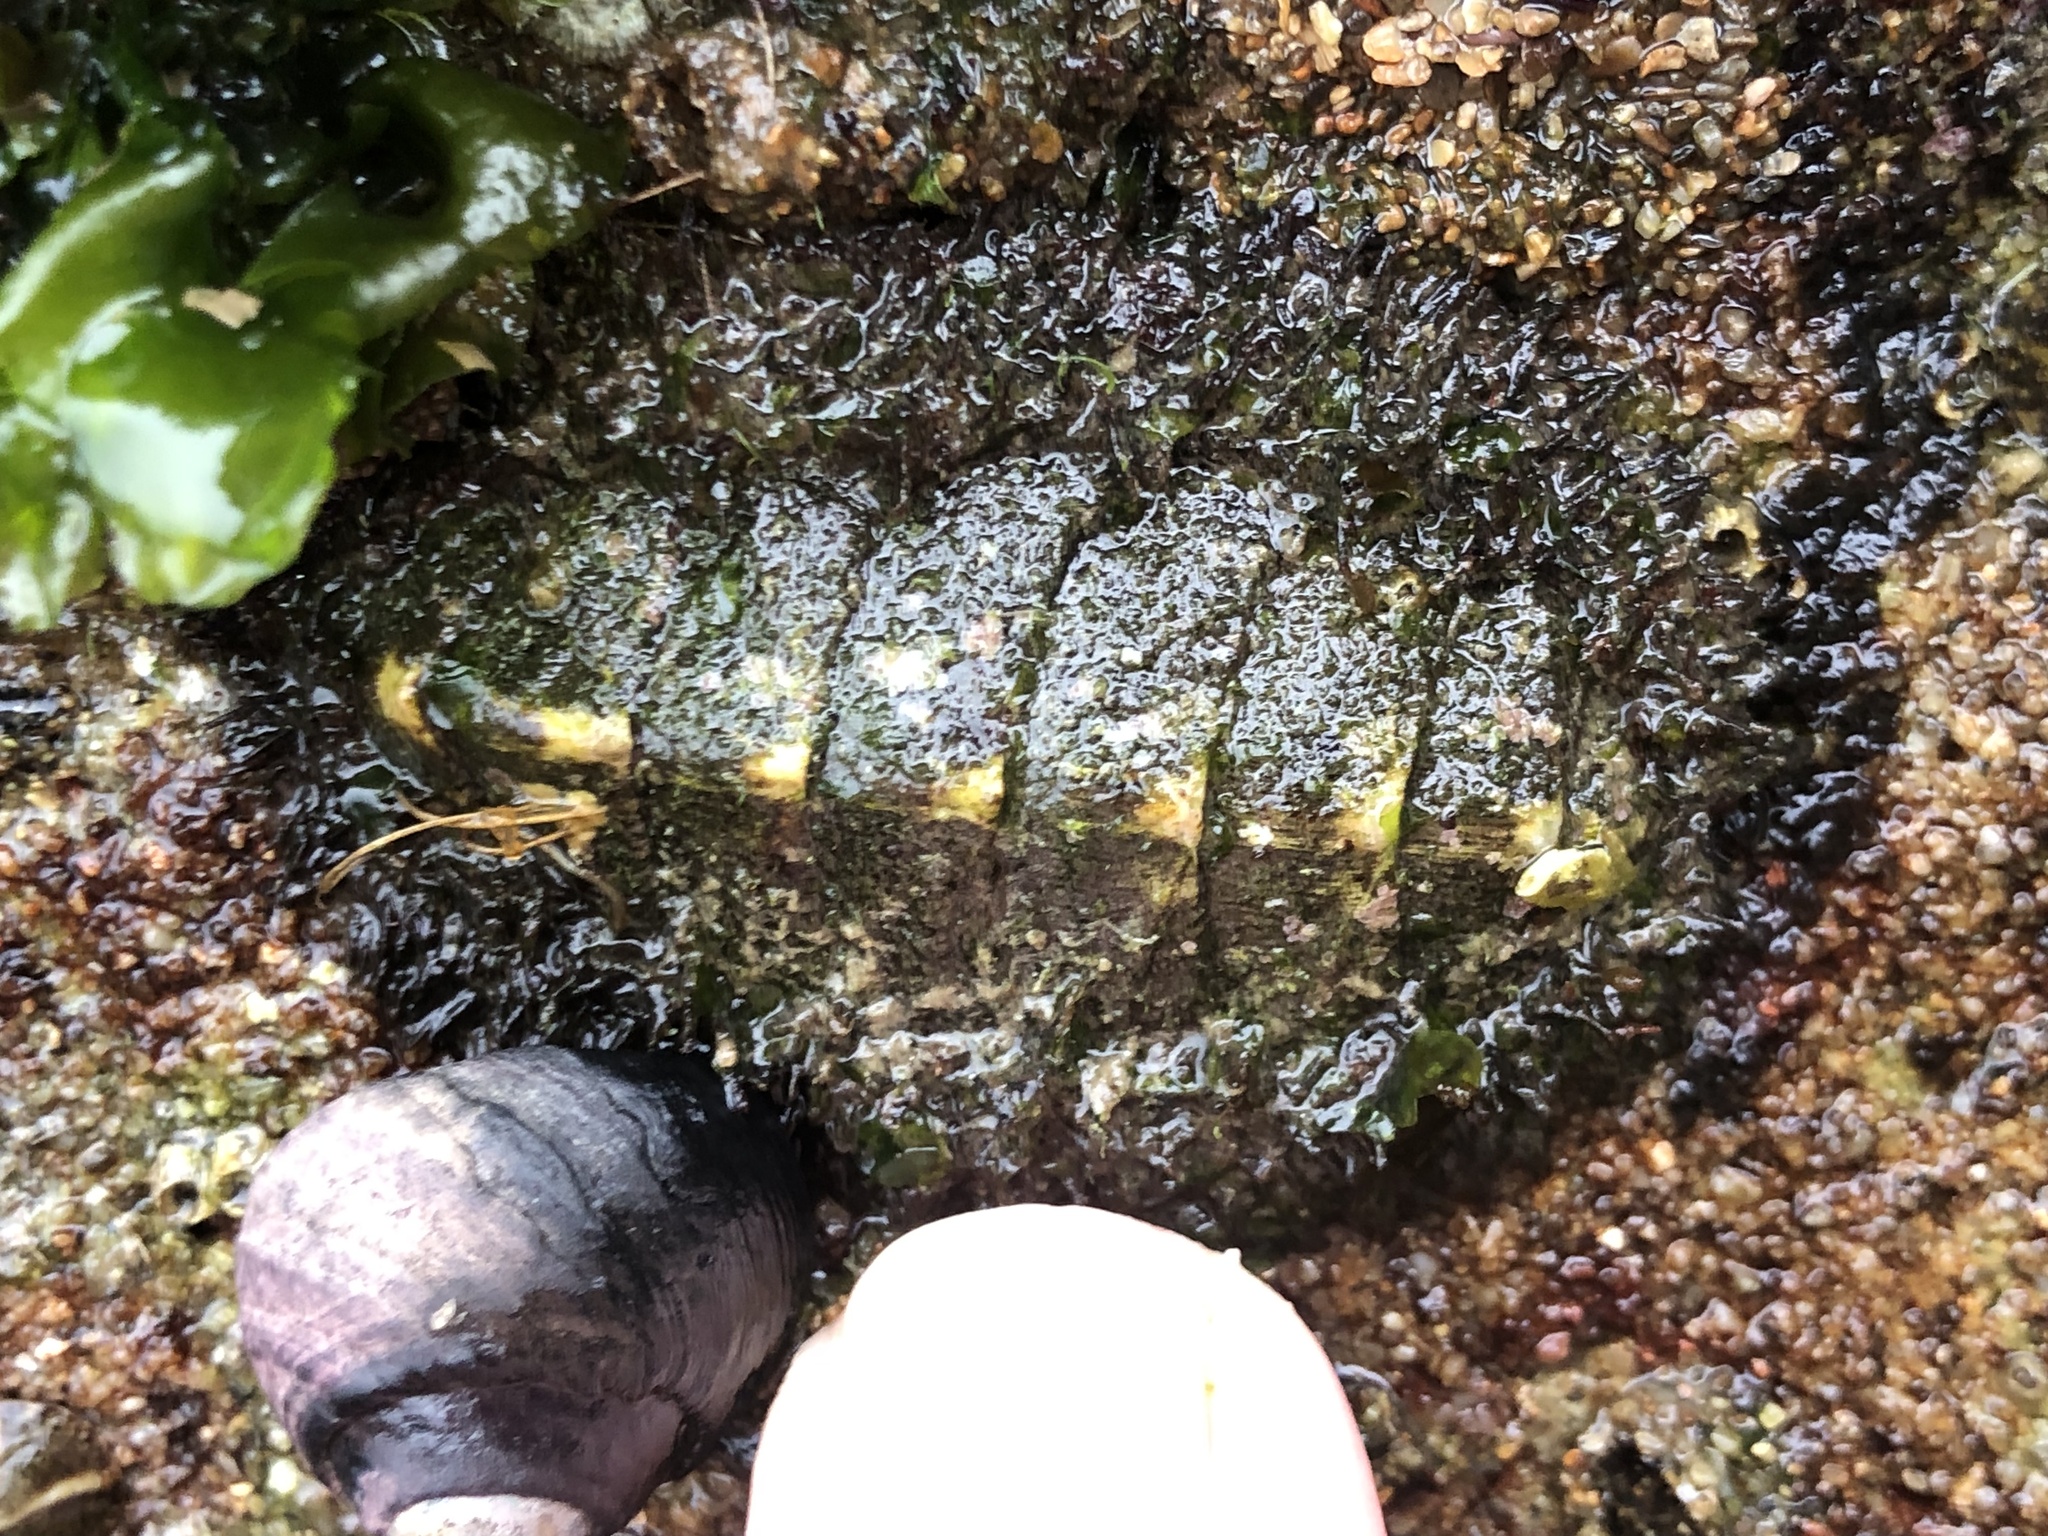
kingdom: Animalia
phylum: Mollusca
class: Polyplacophora
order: Chitonida
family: Mopaliidae
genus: Mopalia
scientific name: Mopalia muscosa
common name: Mossy chiton
